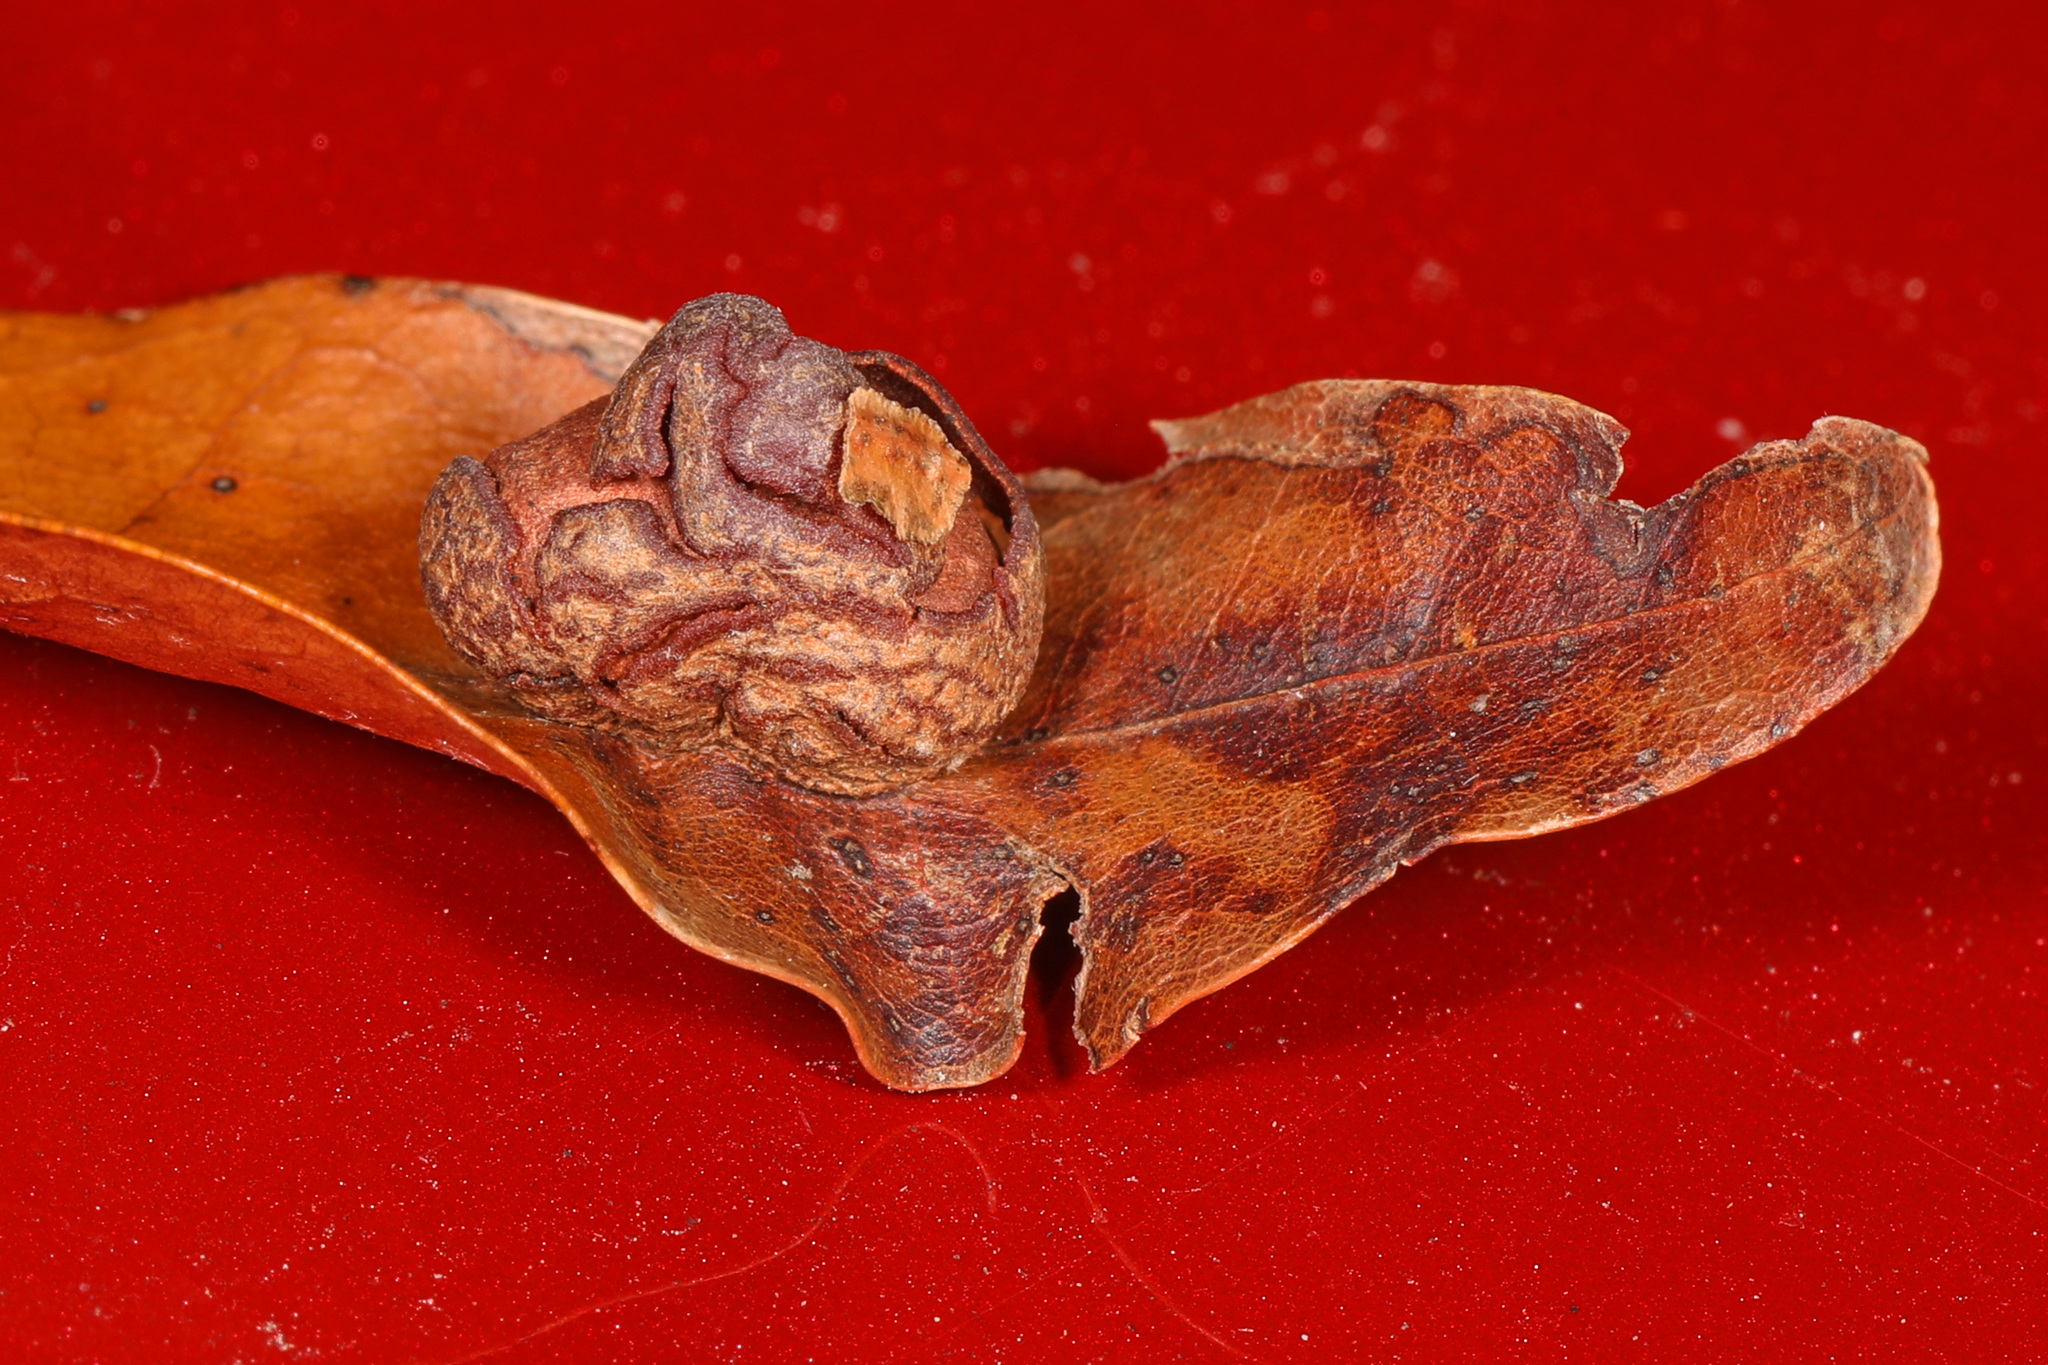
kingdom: Animalia
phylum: Arthropoda
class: Insecta
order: Diptera
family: Cecidomyiidae
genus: Polystepha
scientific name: Polystepha pilulae
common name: Oak leaf gall midge
